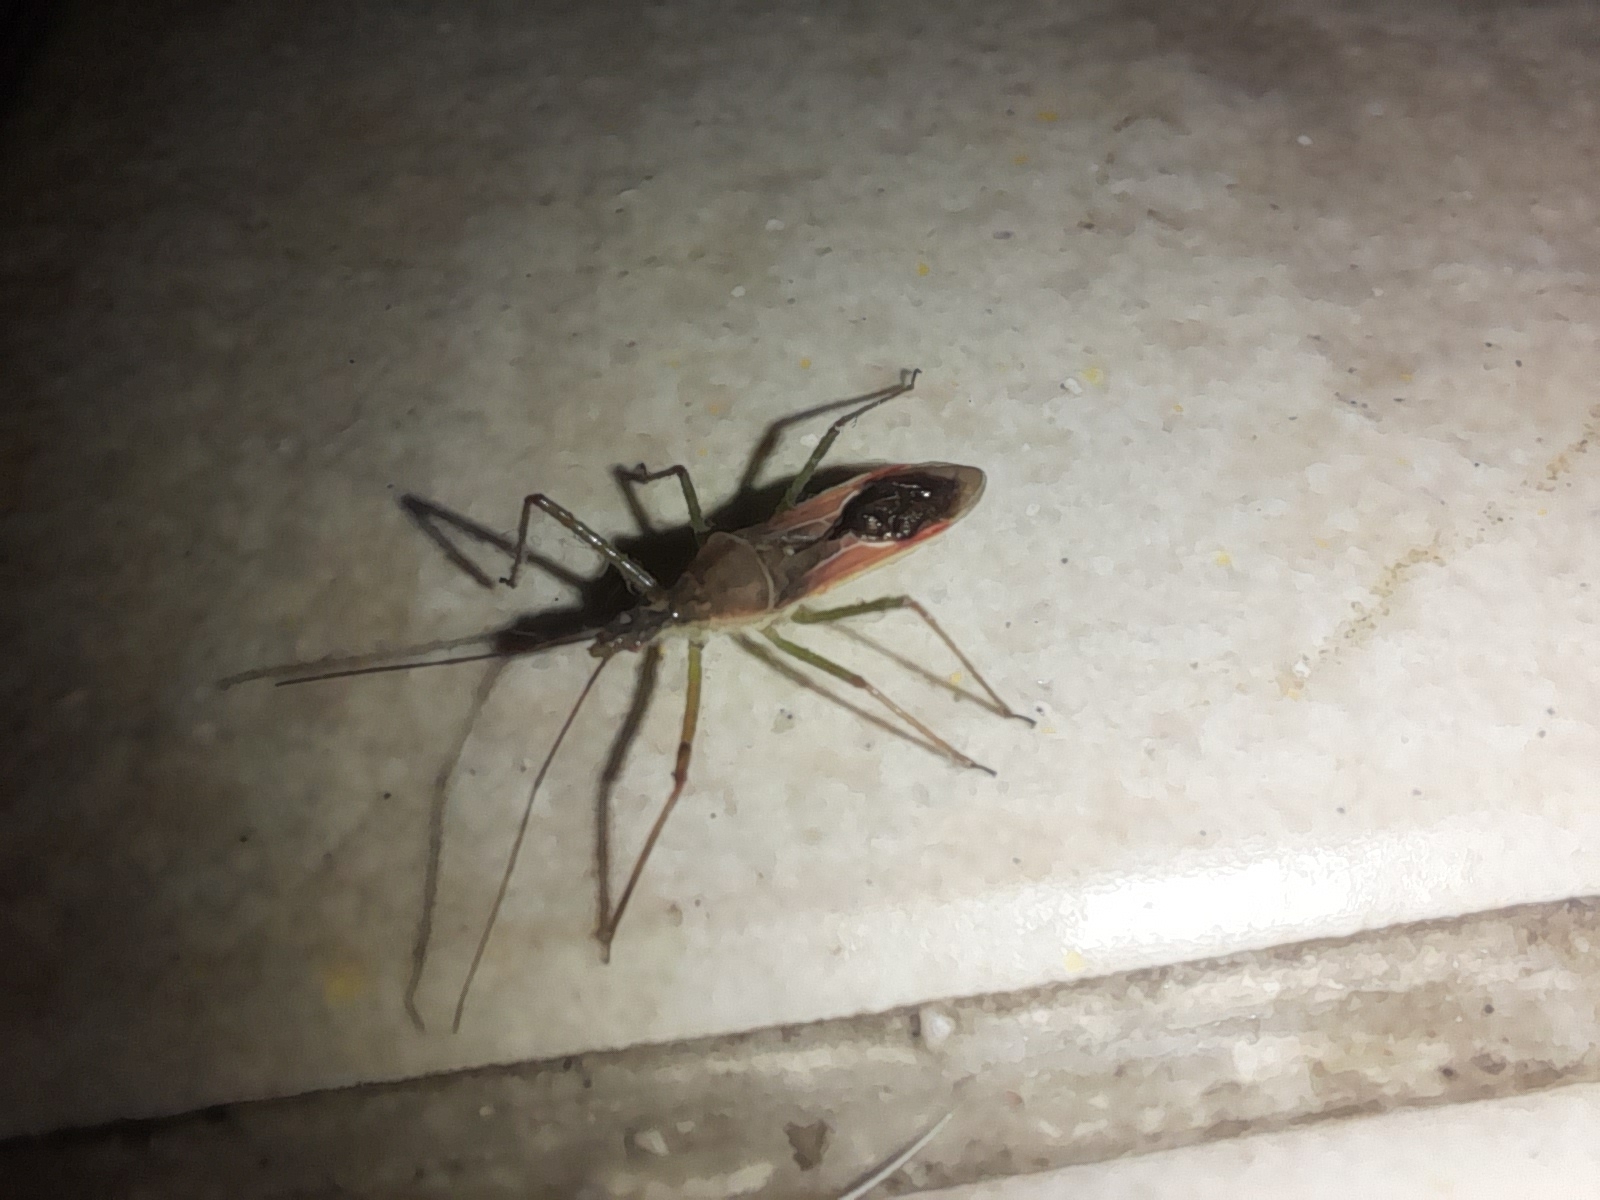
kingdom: Animalia
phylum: Arthropoda
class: Insecta
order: Hemiptera
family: Reduviidae
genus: Zelus
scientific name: Zelus renardii
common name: Assassin bug
